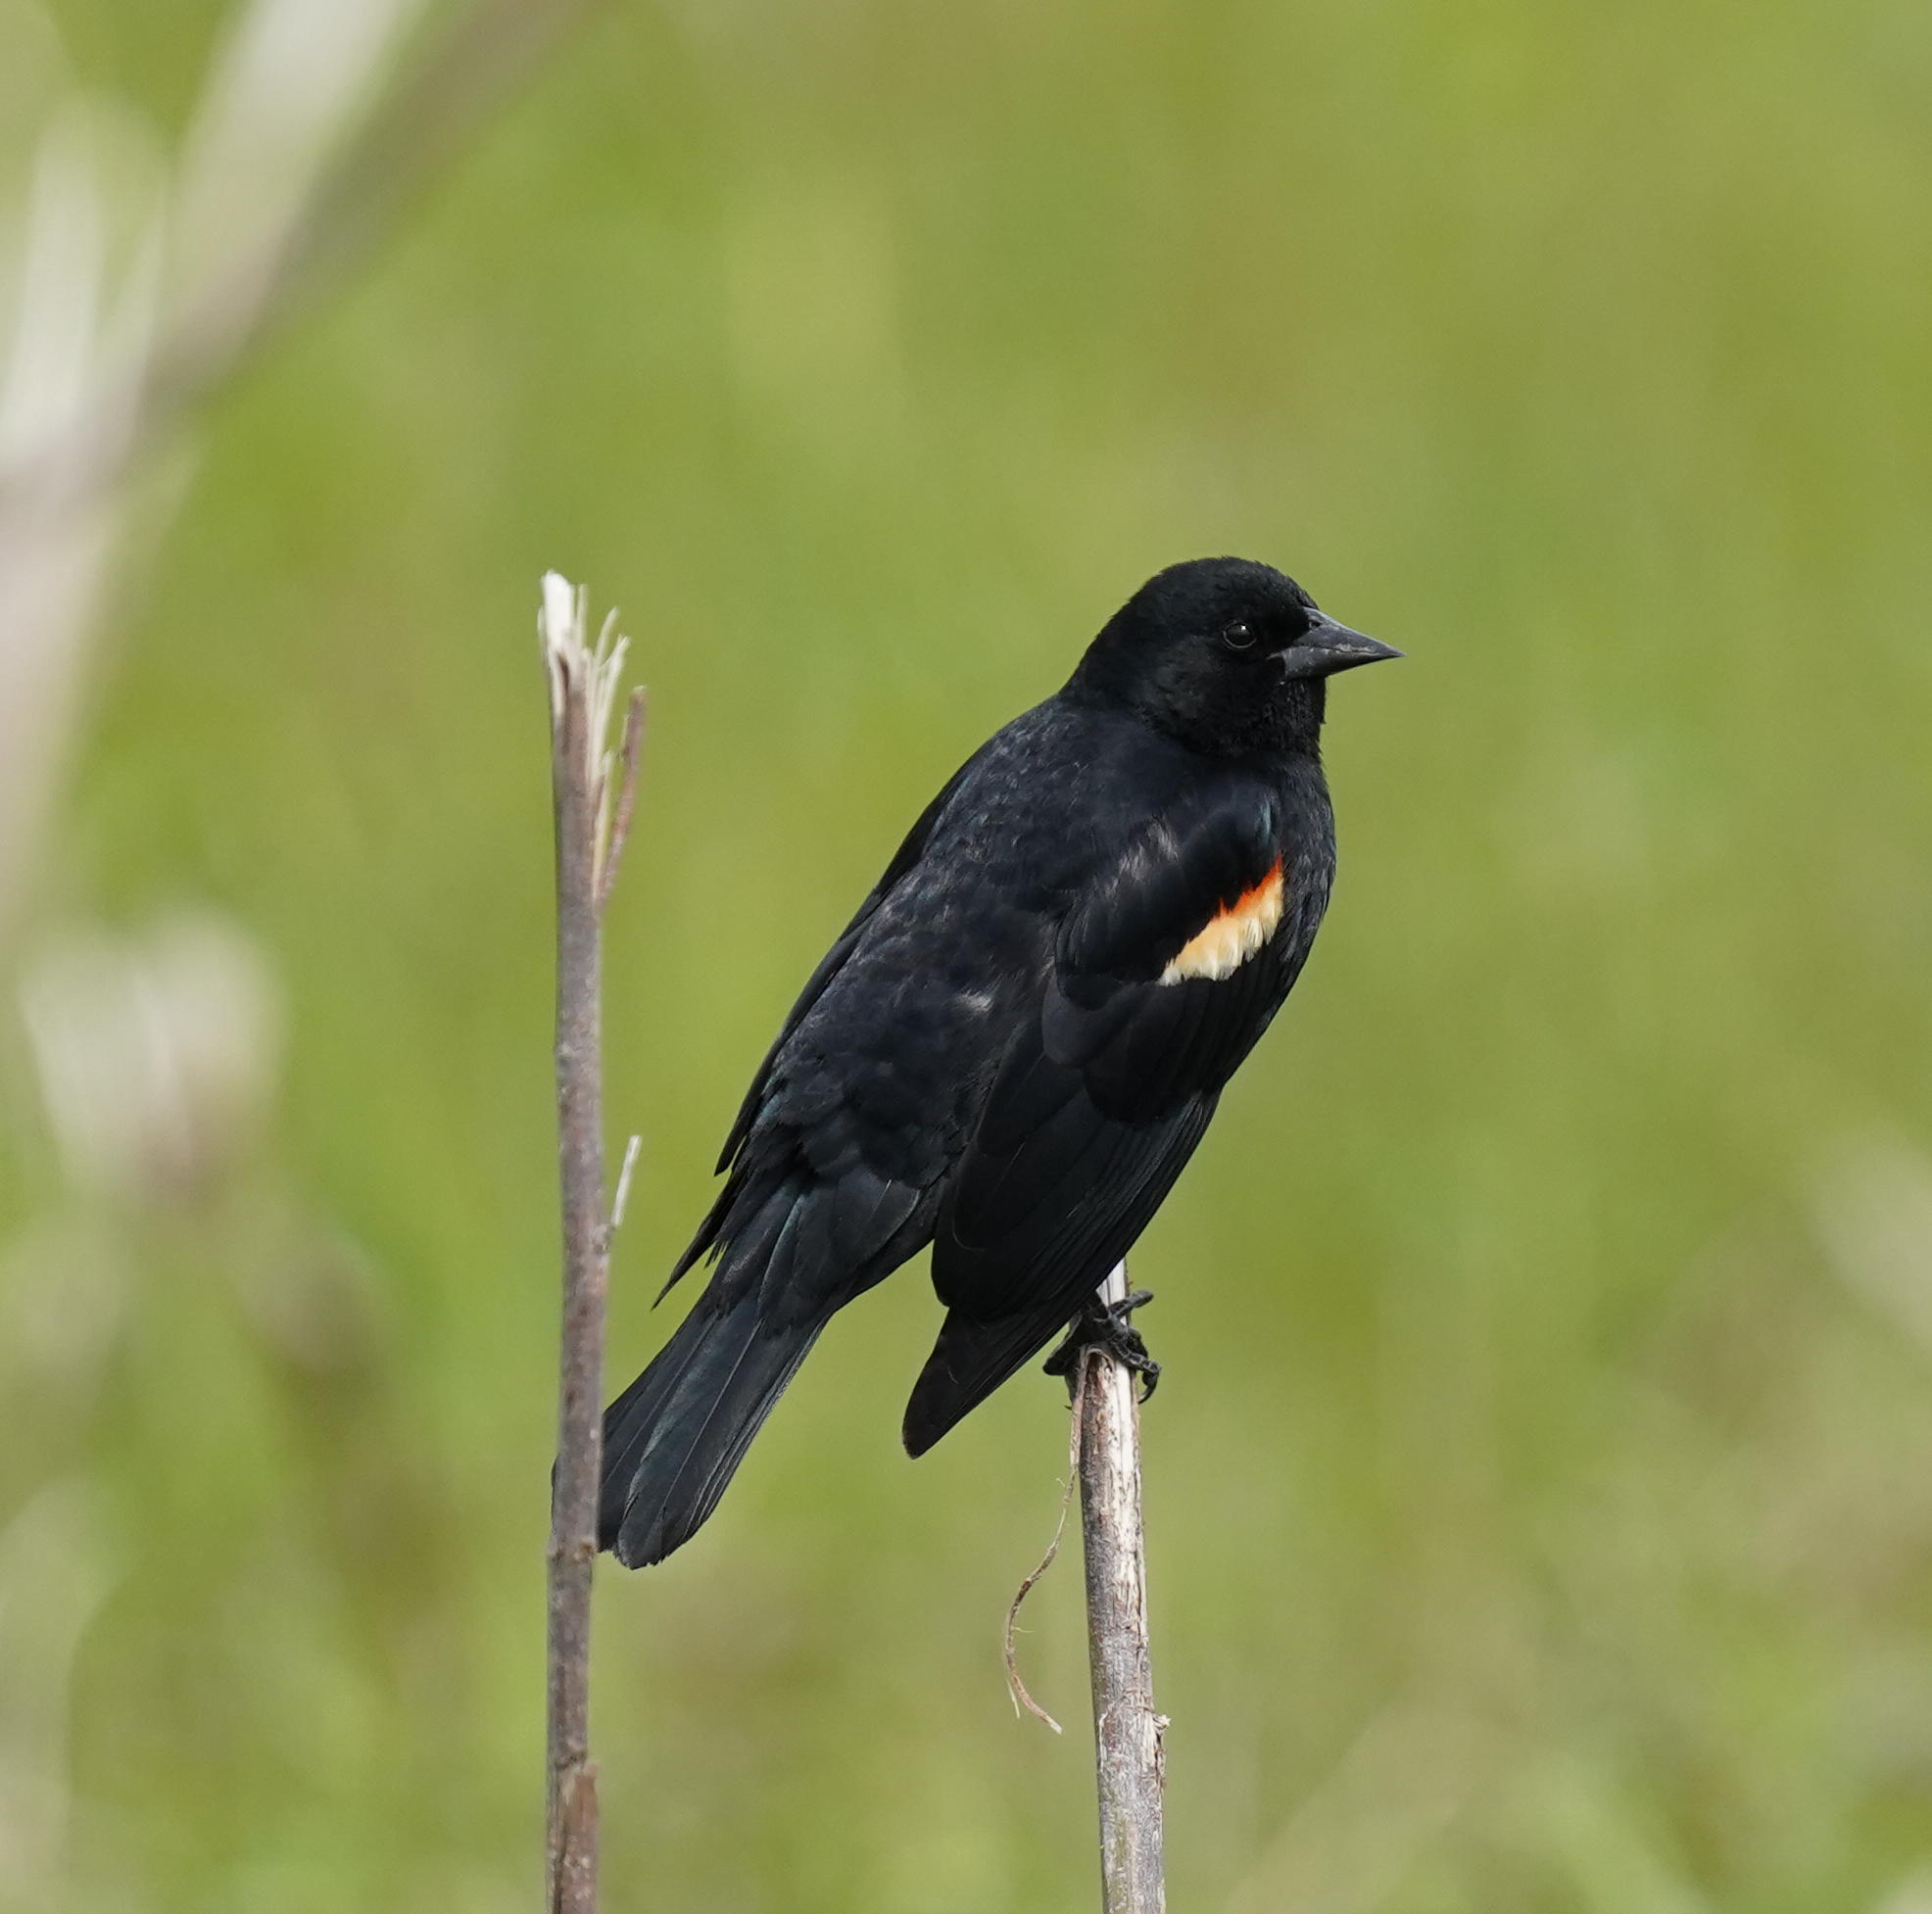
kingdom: Animalia
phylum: Chordata
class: Aves
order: Passeriformes
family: Icteridae
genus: Agelaius
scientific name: Agelaius phoeniceus
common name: Red-winged blackbird
